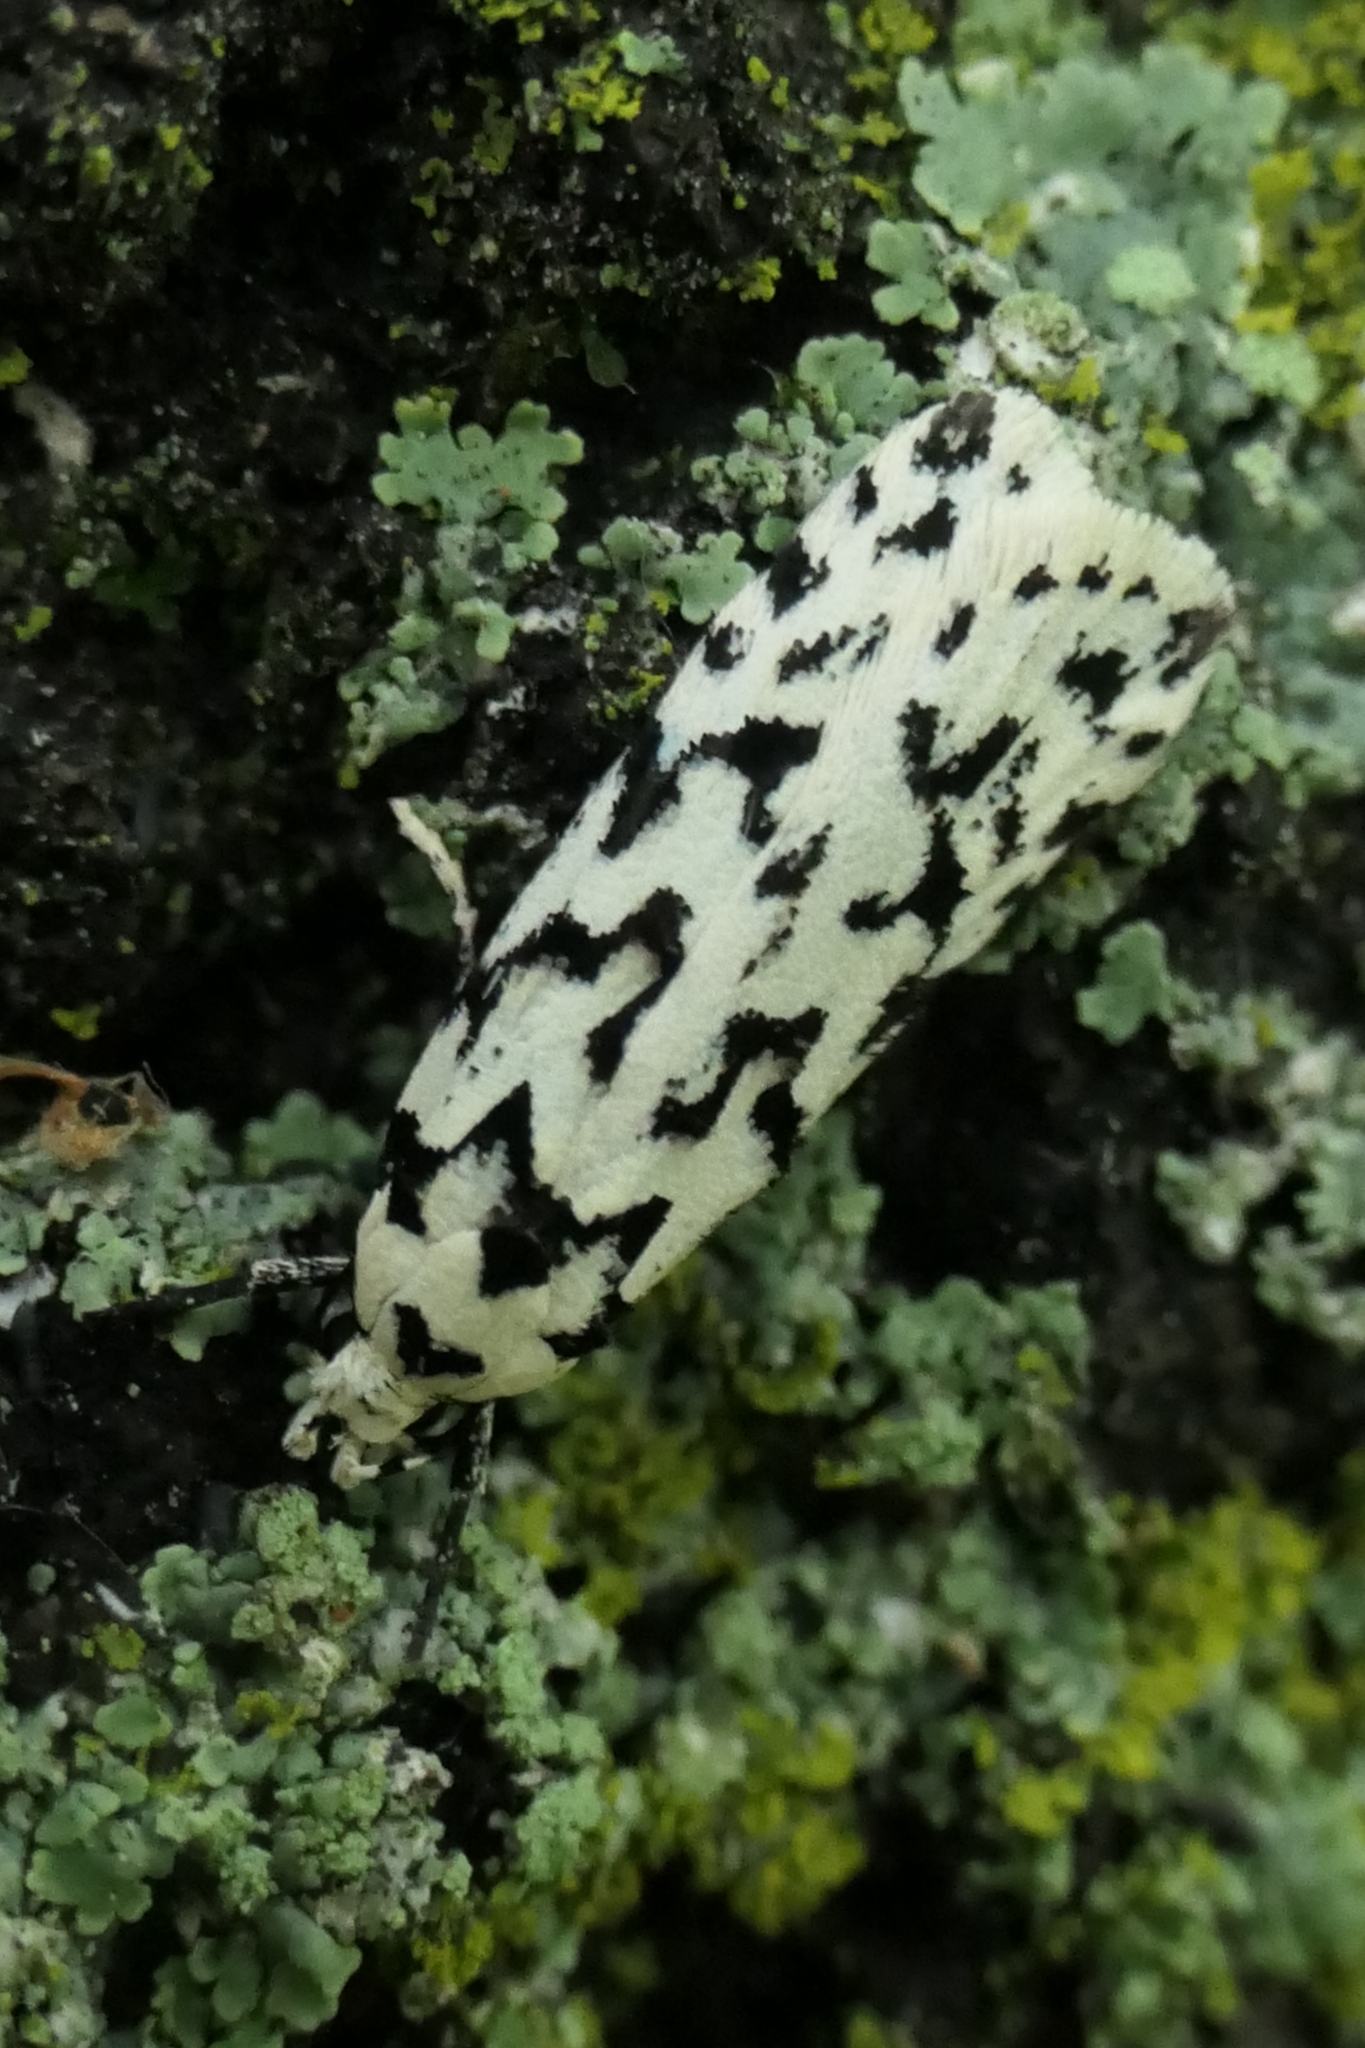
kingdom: Animalia
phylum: Arthropoda
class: Insecta
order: Lepidoptera
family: Oecophoridae
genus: Izatha
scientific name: Izatha katadiktya
